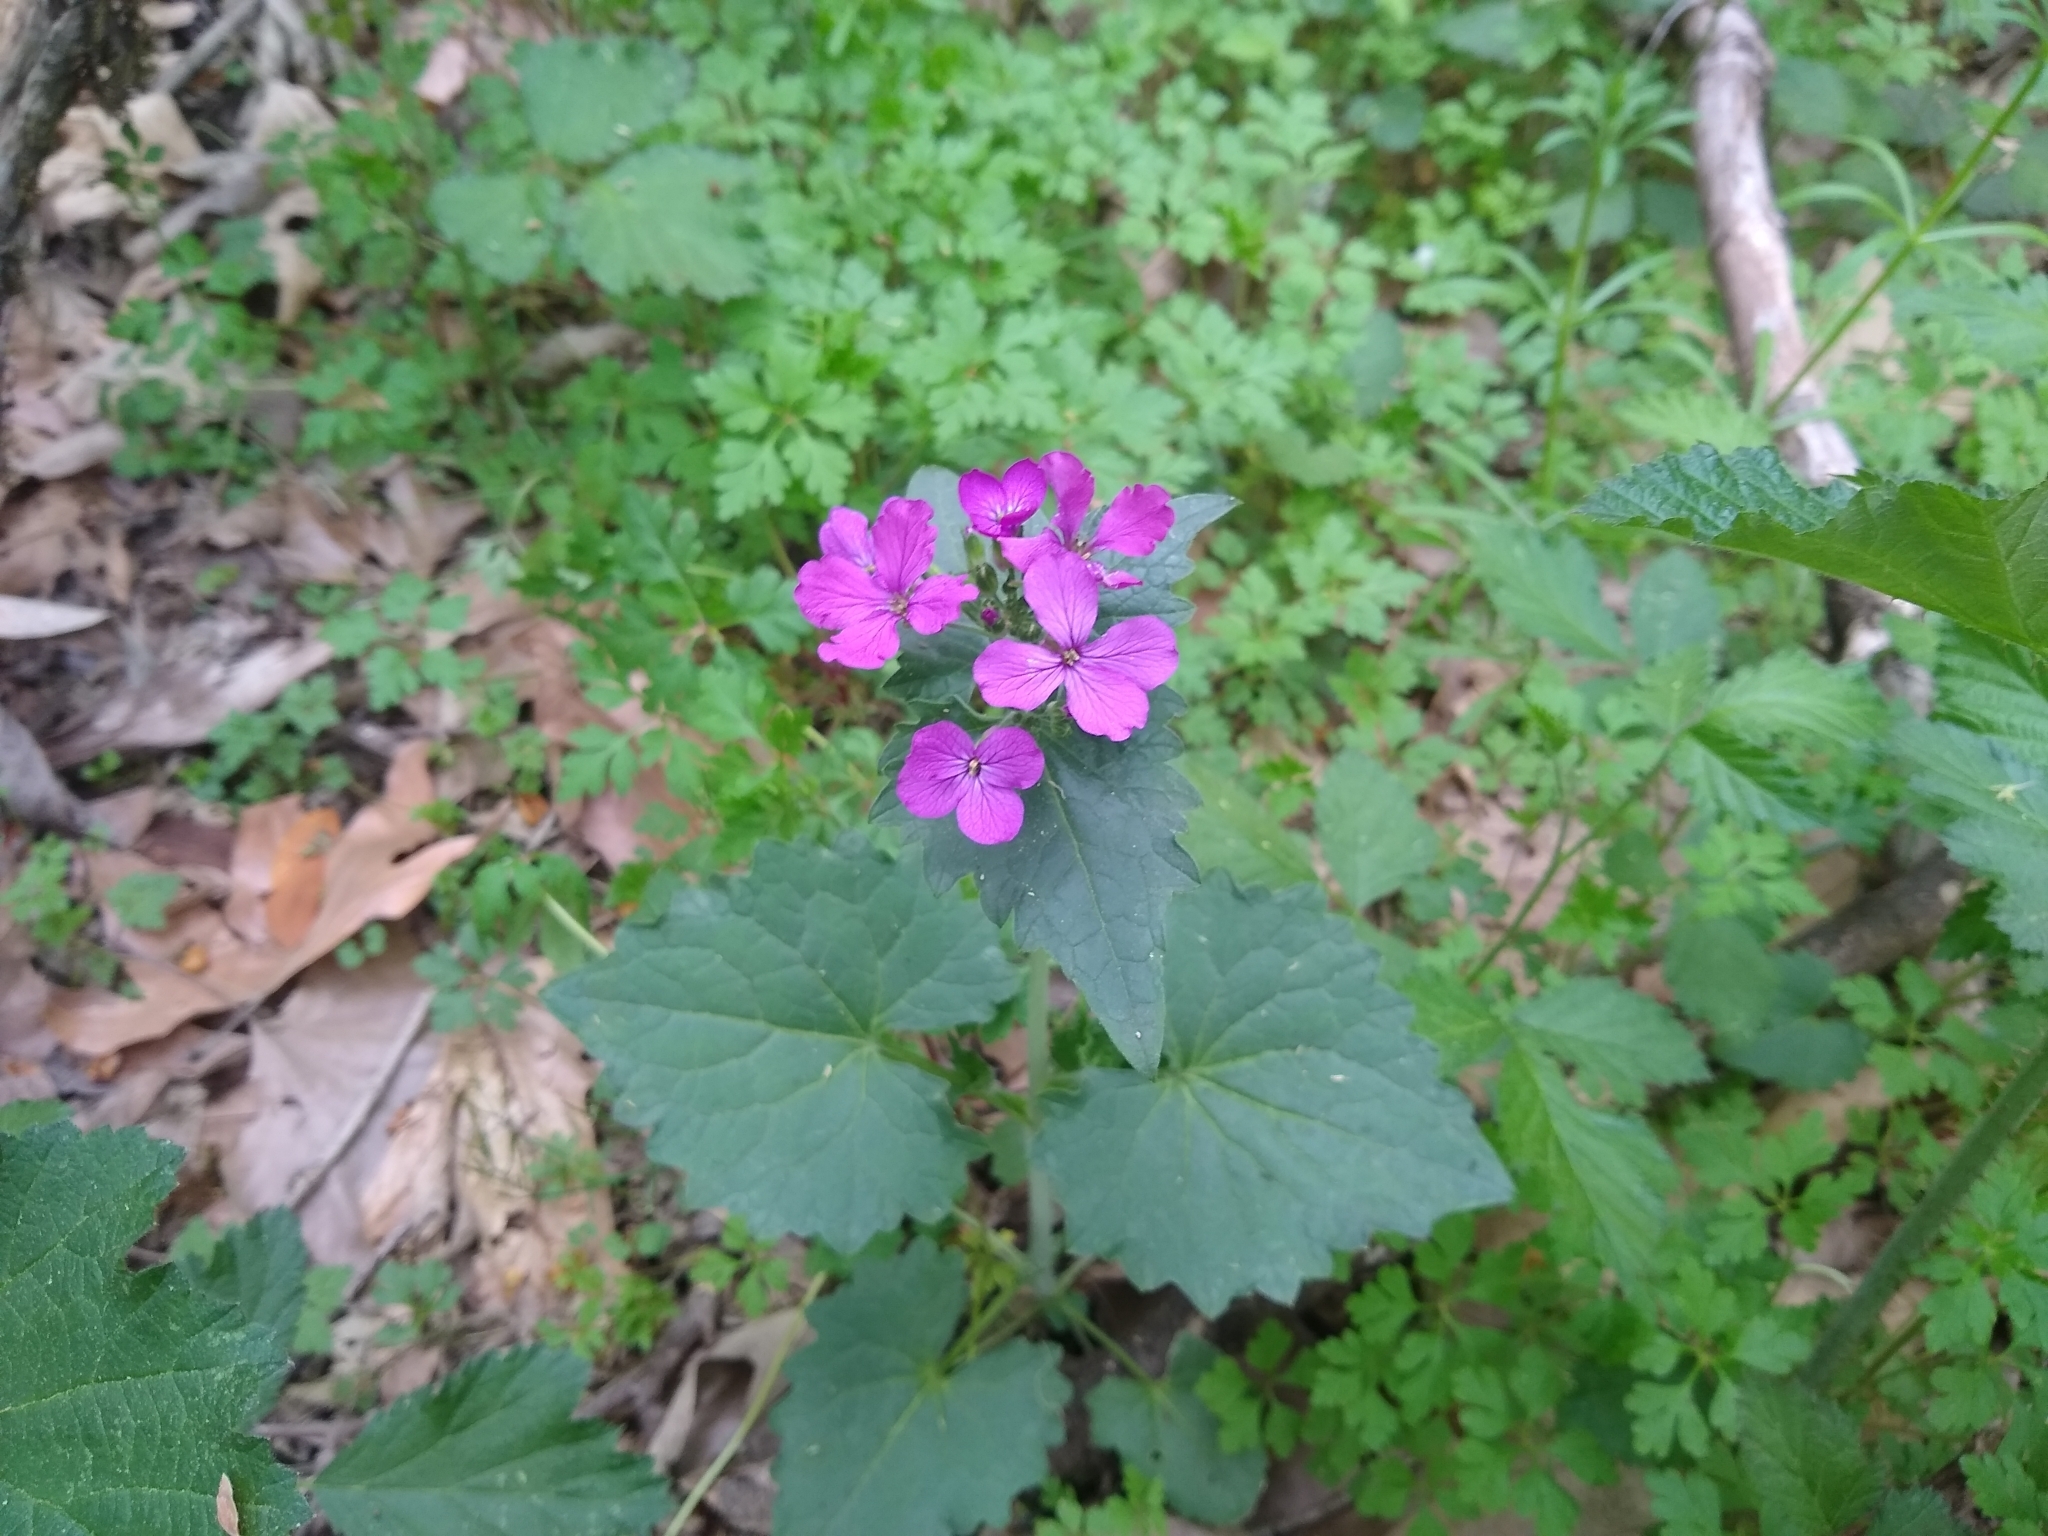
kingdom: Plantae
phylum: Tracheophyta
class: Magnoliopsida
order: Brassicales
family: Brassicaceae
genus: Lunaria
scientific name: Lunaria annua
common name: Honesty
